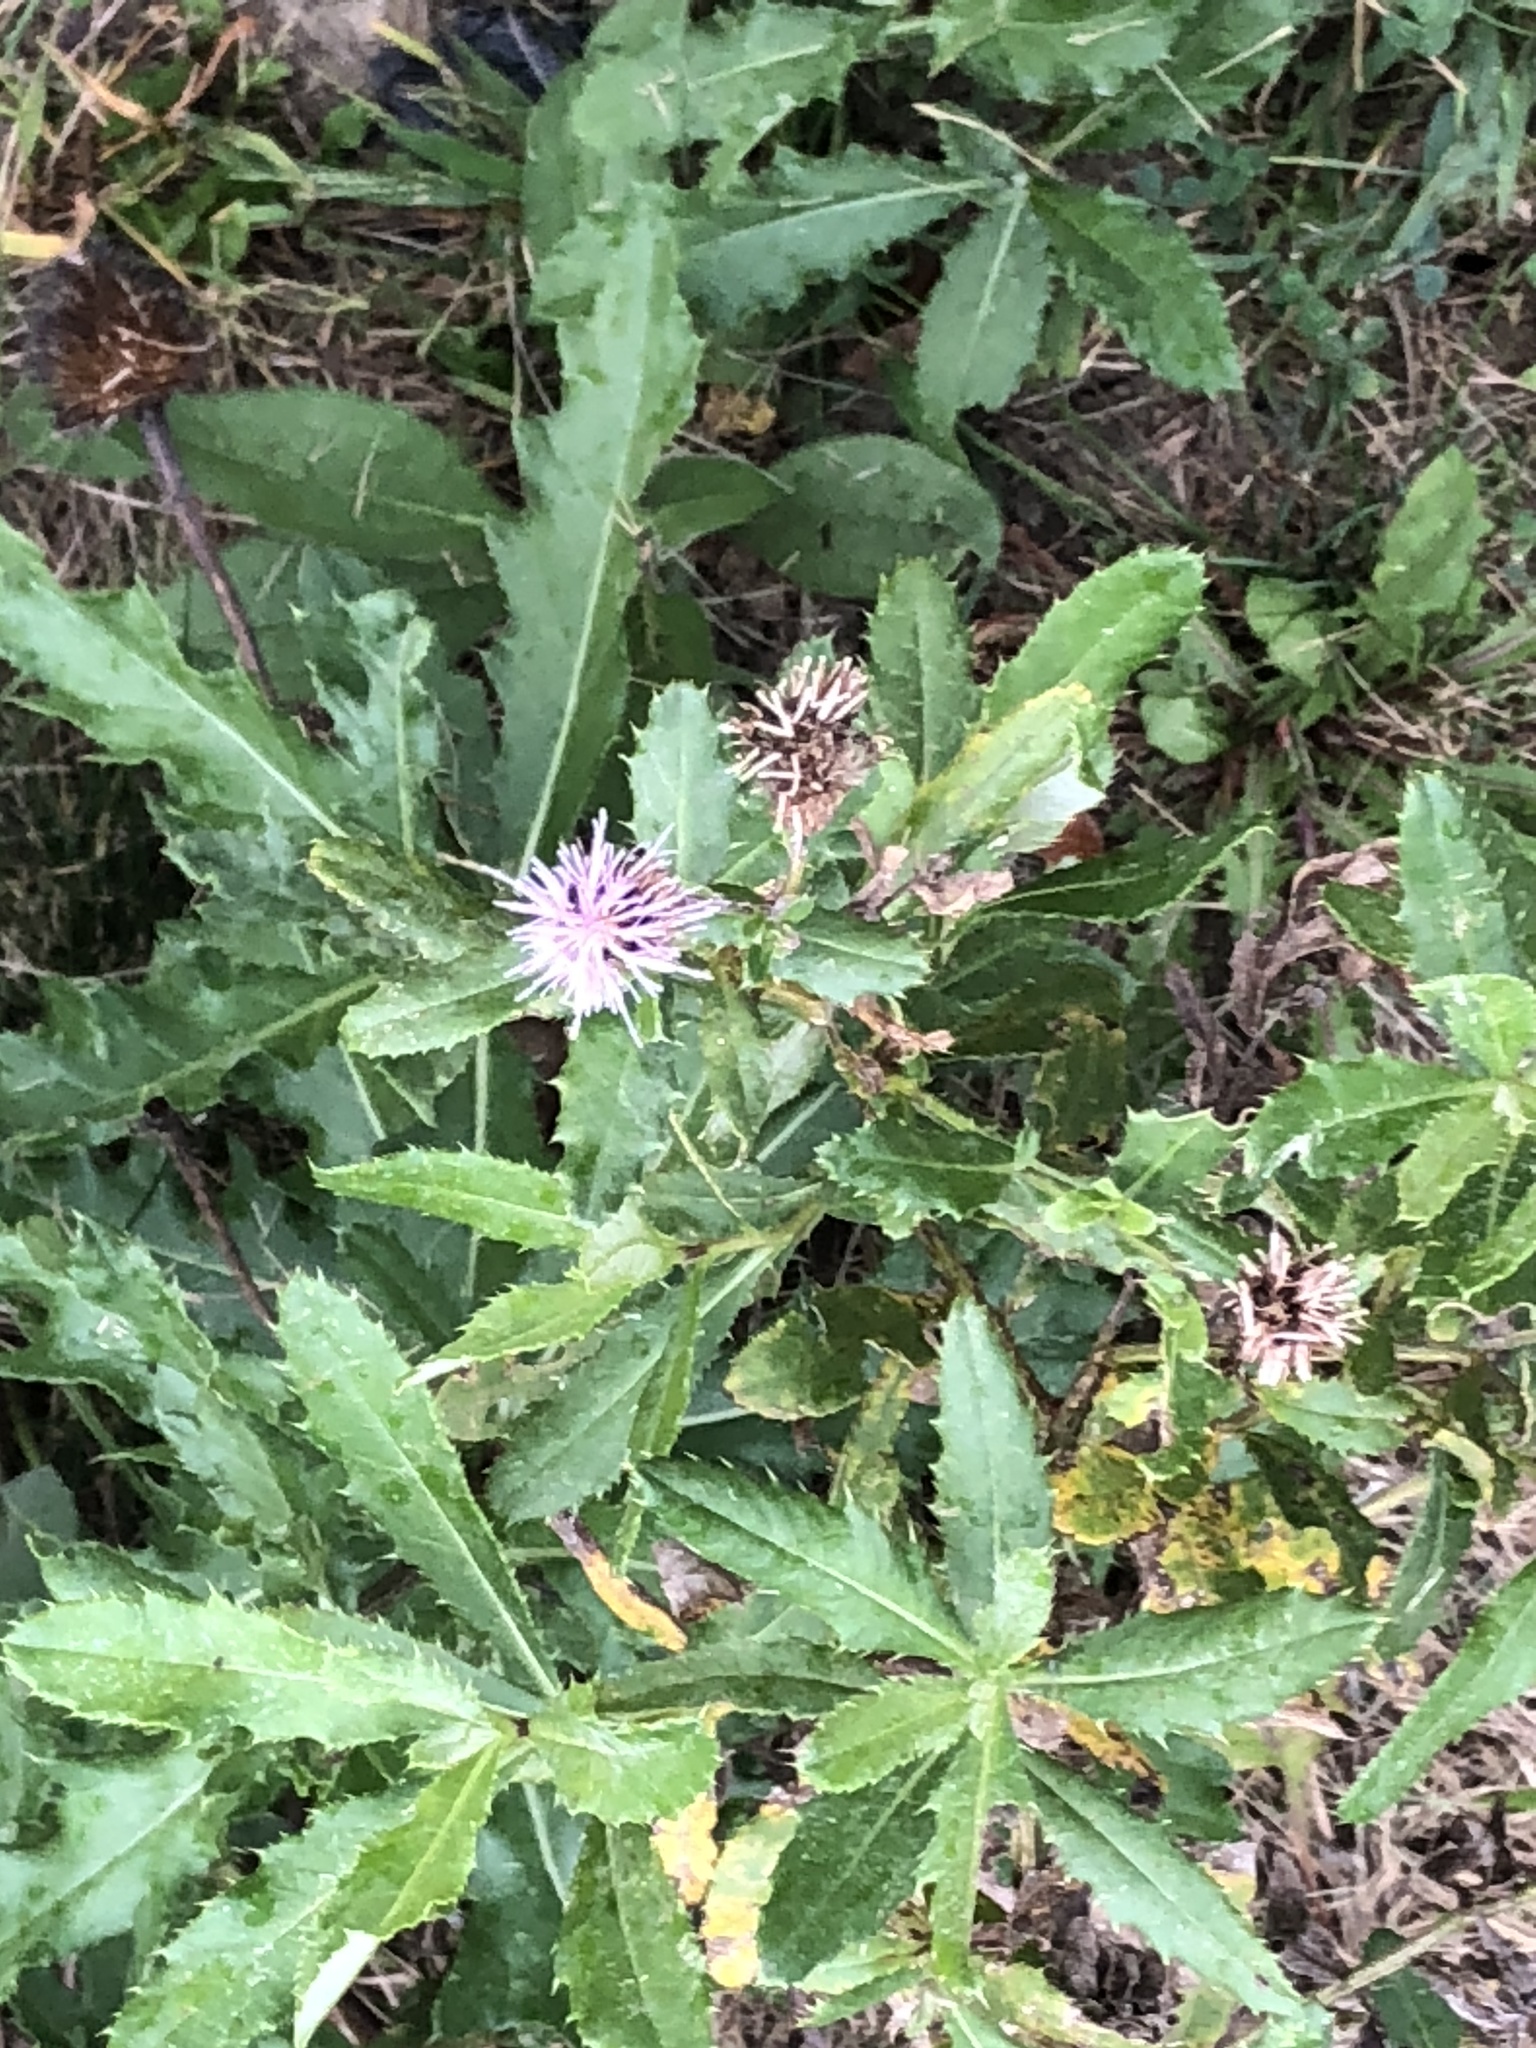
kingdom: Plantae
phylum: Tracheophyta
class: Magnoliopsida
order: Asterales
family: Asteraceae
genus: Cirsium
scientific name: Cirsium arvense
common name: Creeping thistle
